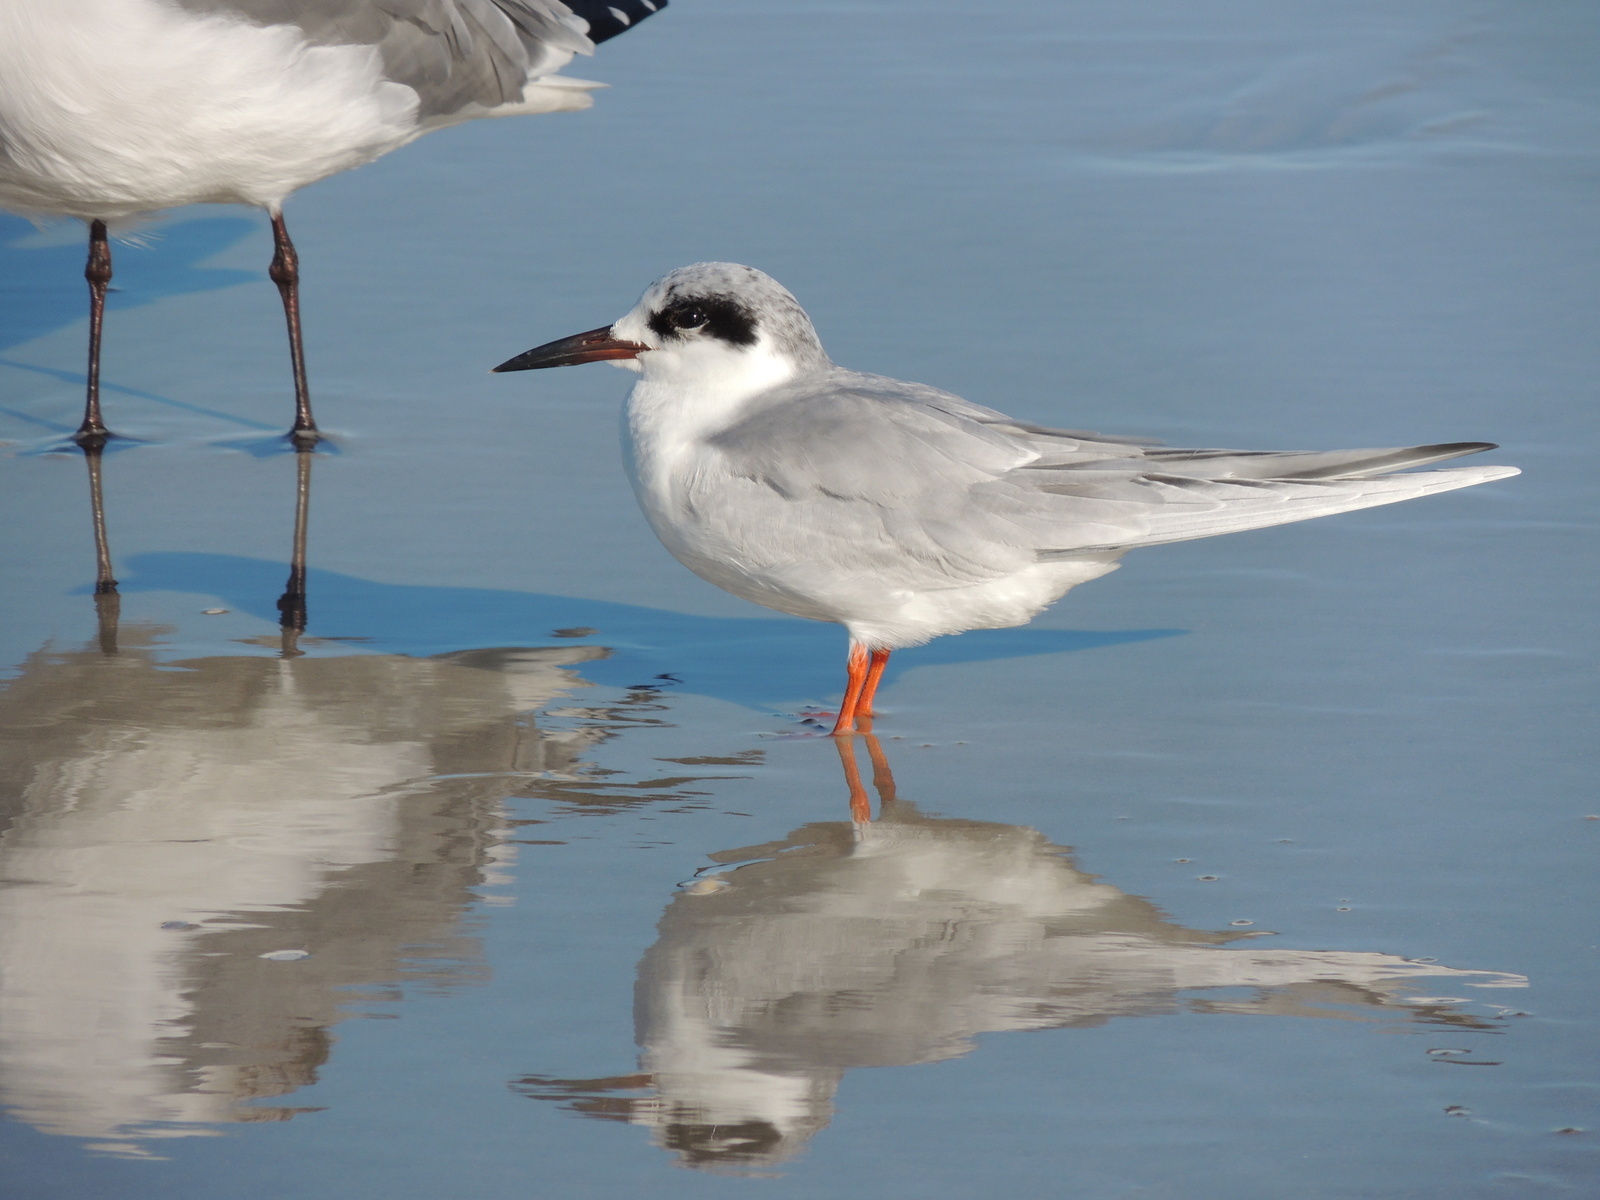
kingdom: Animalia
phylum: Chordata
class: Aves
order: Charadriiformes
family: Laridae
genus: Sterna
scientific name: Sterna forsteri
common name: Forster's tern
